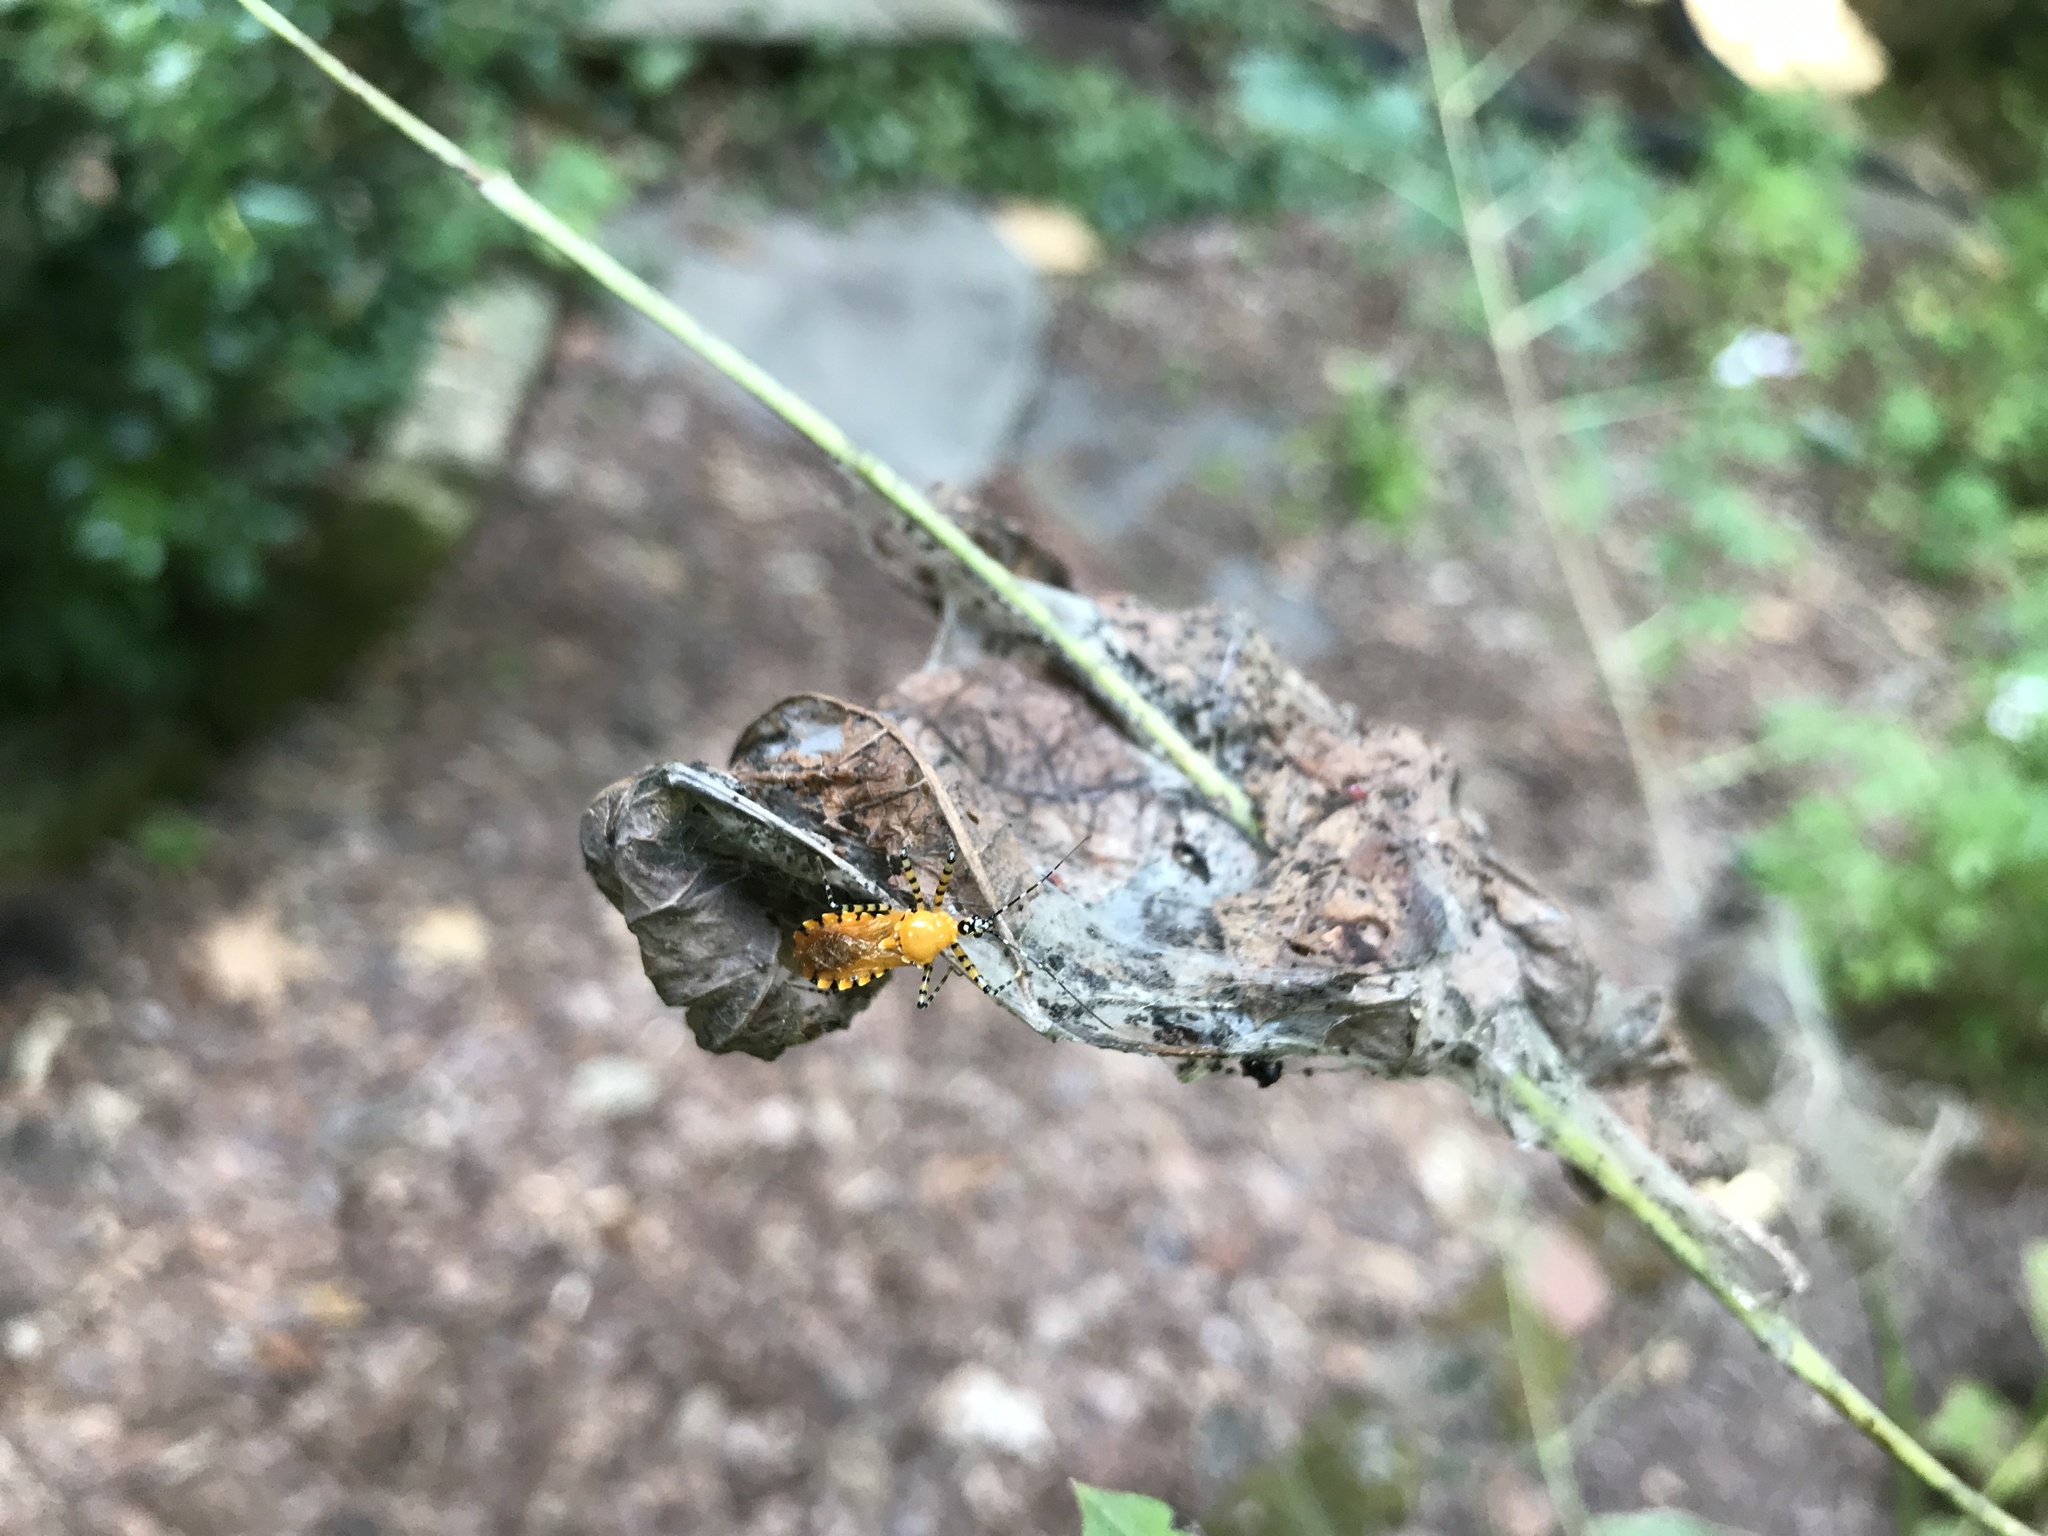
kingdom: Animalia
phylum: Arthropoda
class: Insecta
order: Hemiptera
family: Reduviidae
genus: Pselliopus
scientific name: Pselliopus barberi
